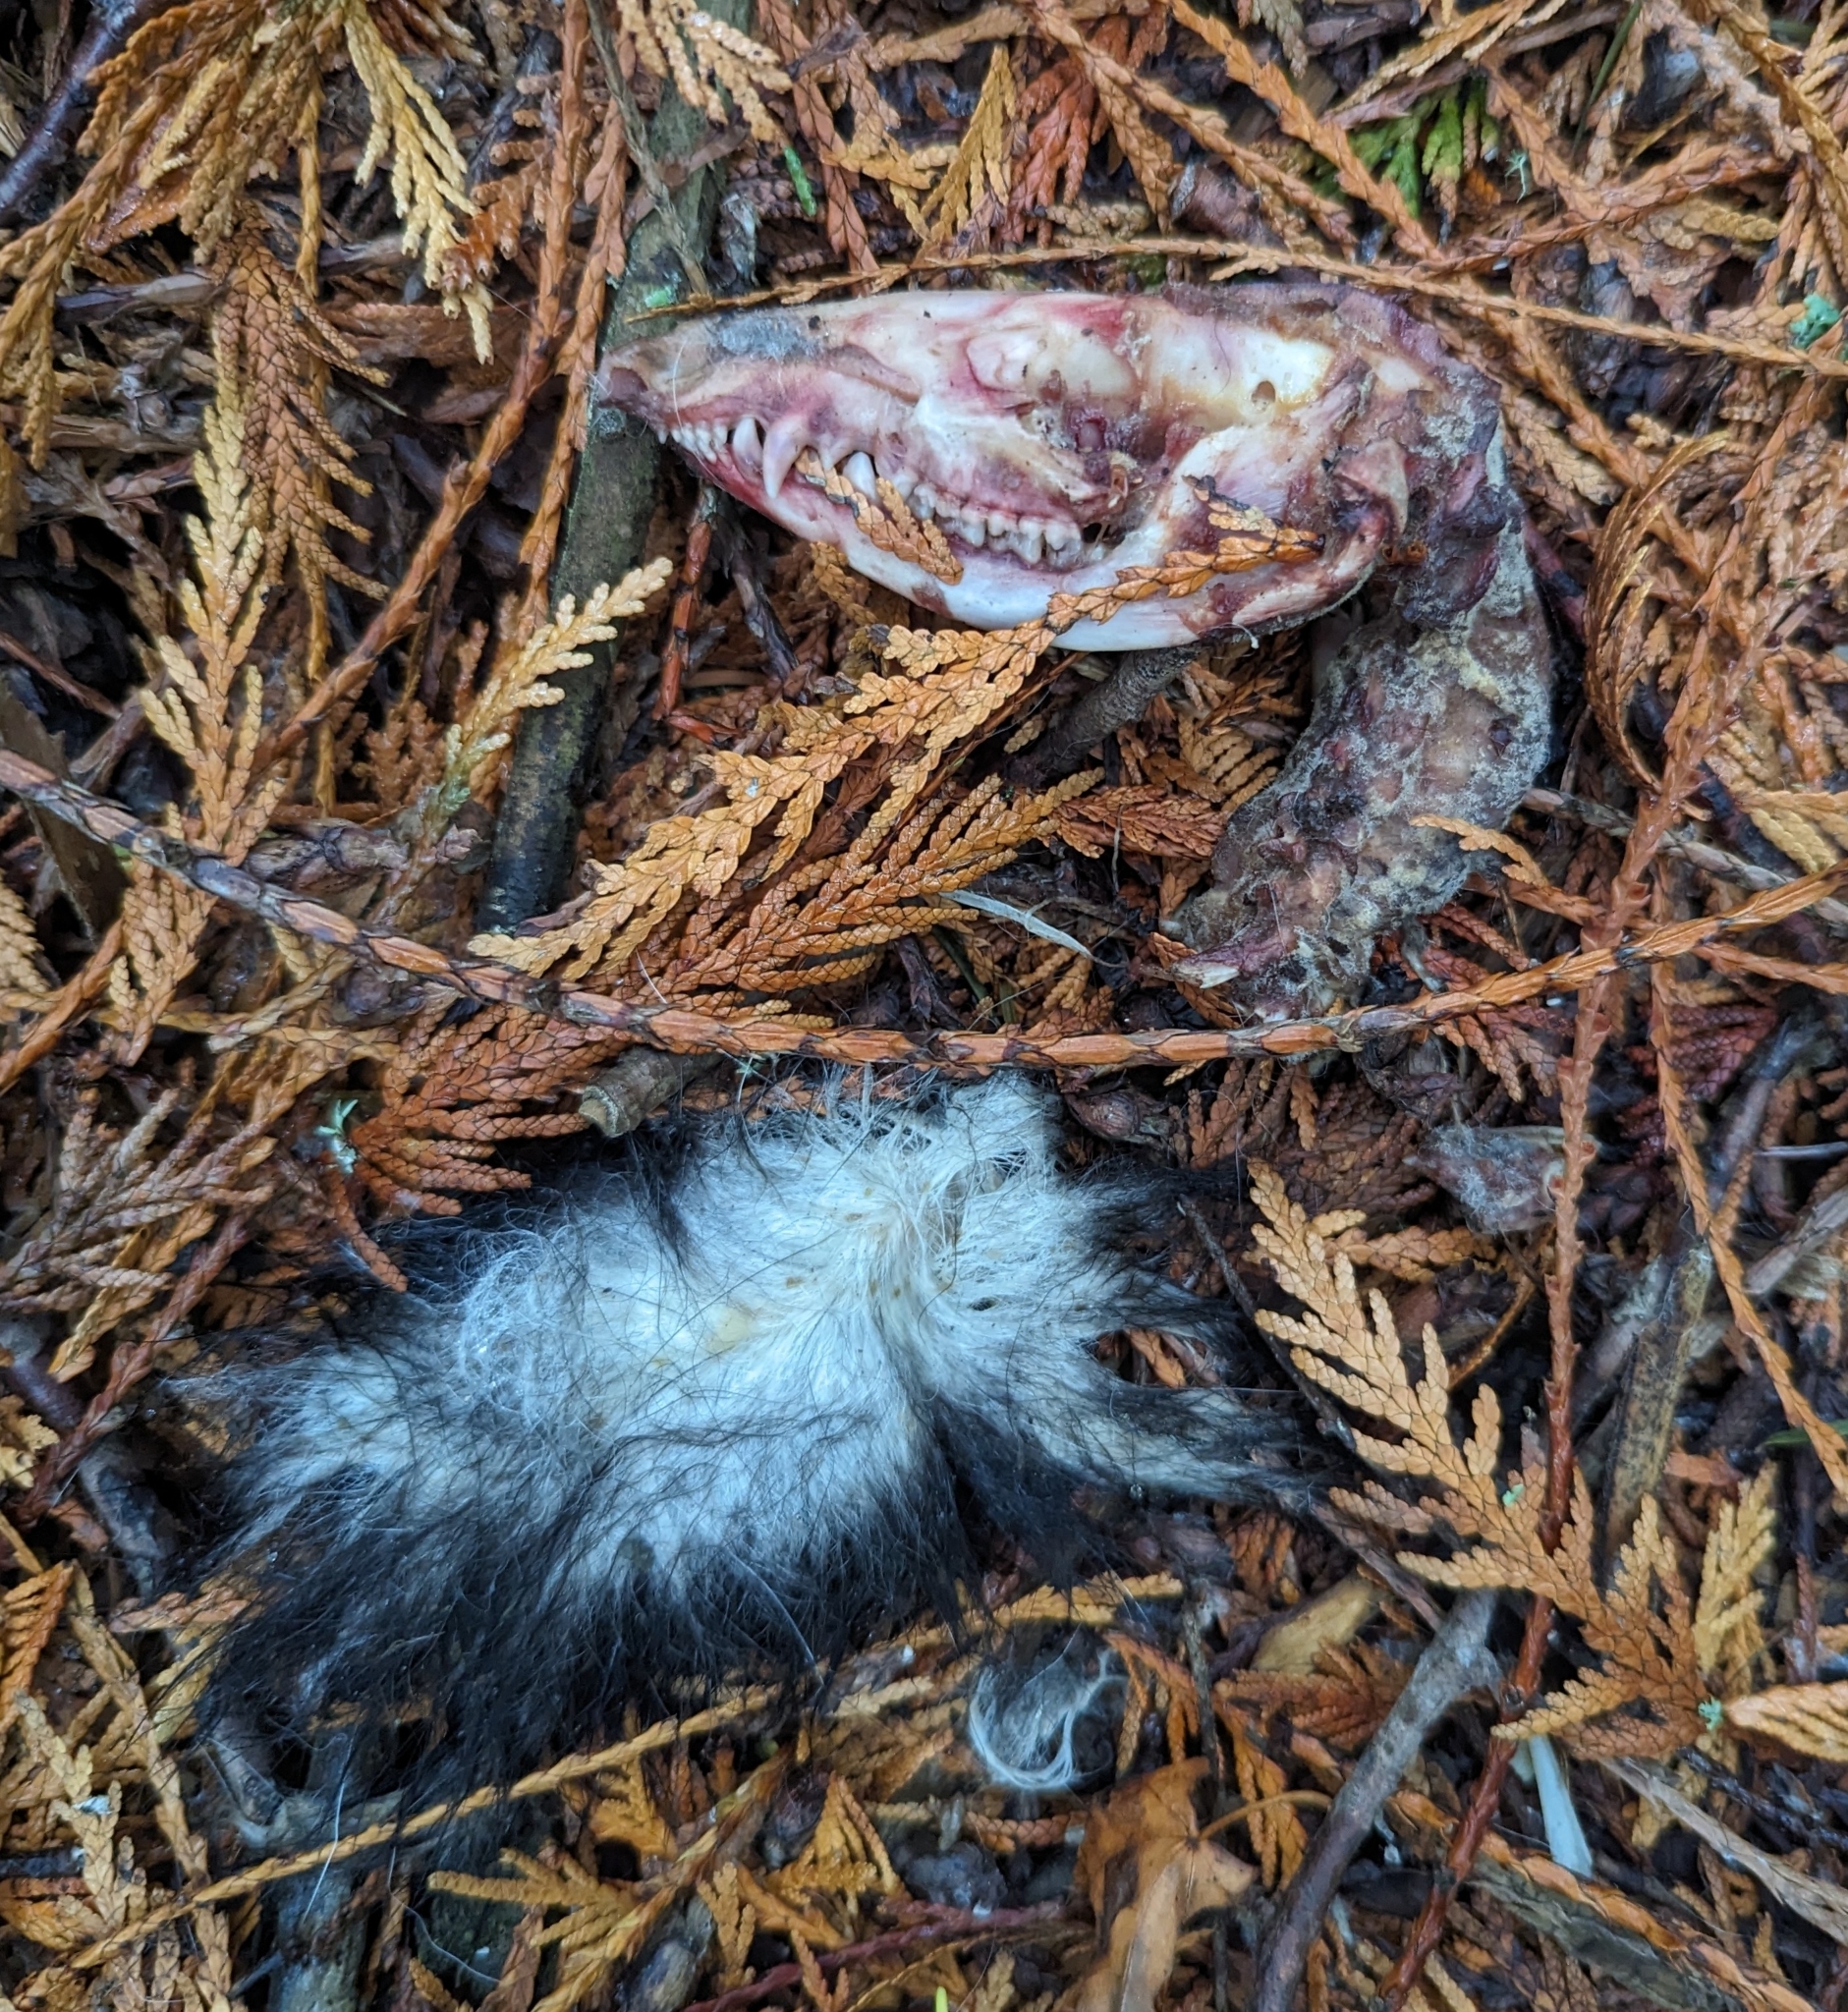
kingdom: Animalia
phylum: Chordata
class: Mammalia
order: Didelphimorphia
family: Didelphidae
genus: Didelphis
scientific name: Didelphis virginiana
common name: Virginia opossum
